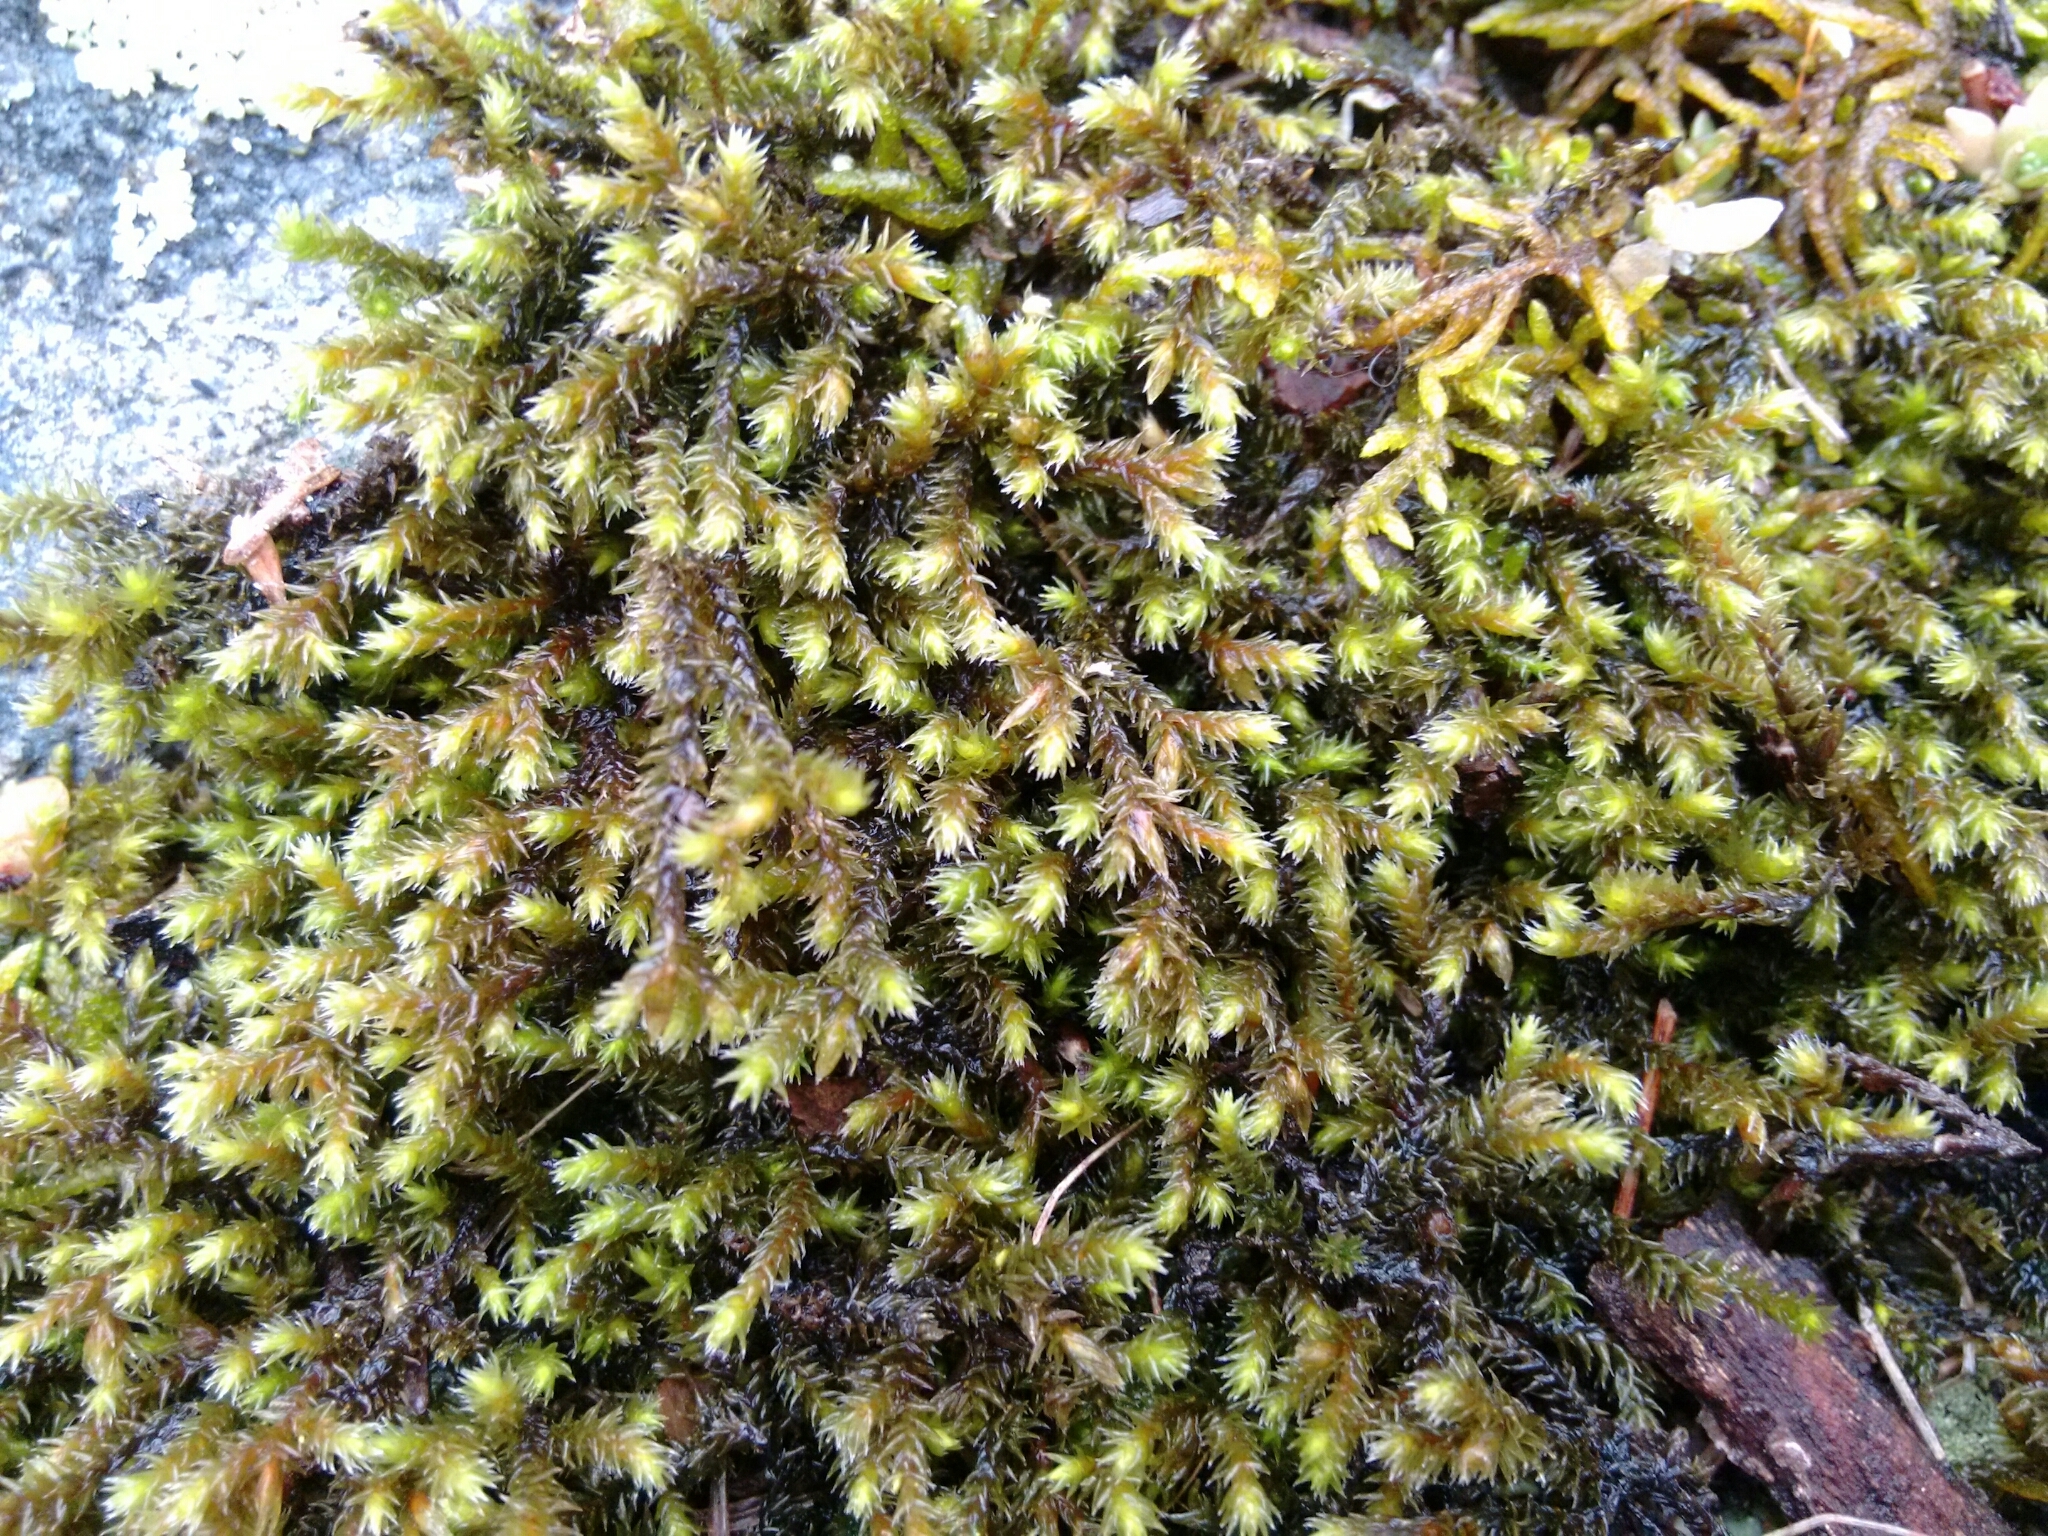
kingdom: Plantae
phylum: Bryophyta
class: Bryopsida
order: Hedwigiales
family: Hedwigiaceae
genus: Hedwigia
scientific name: Hedwigia ciliata
